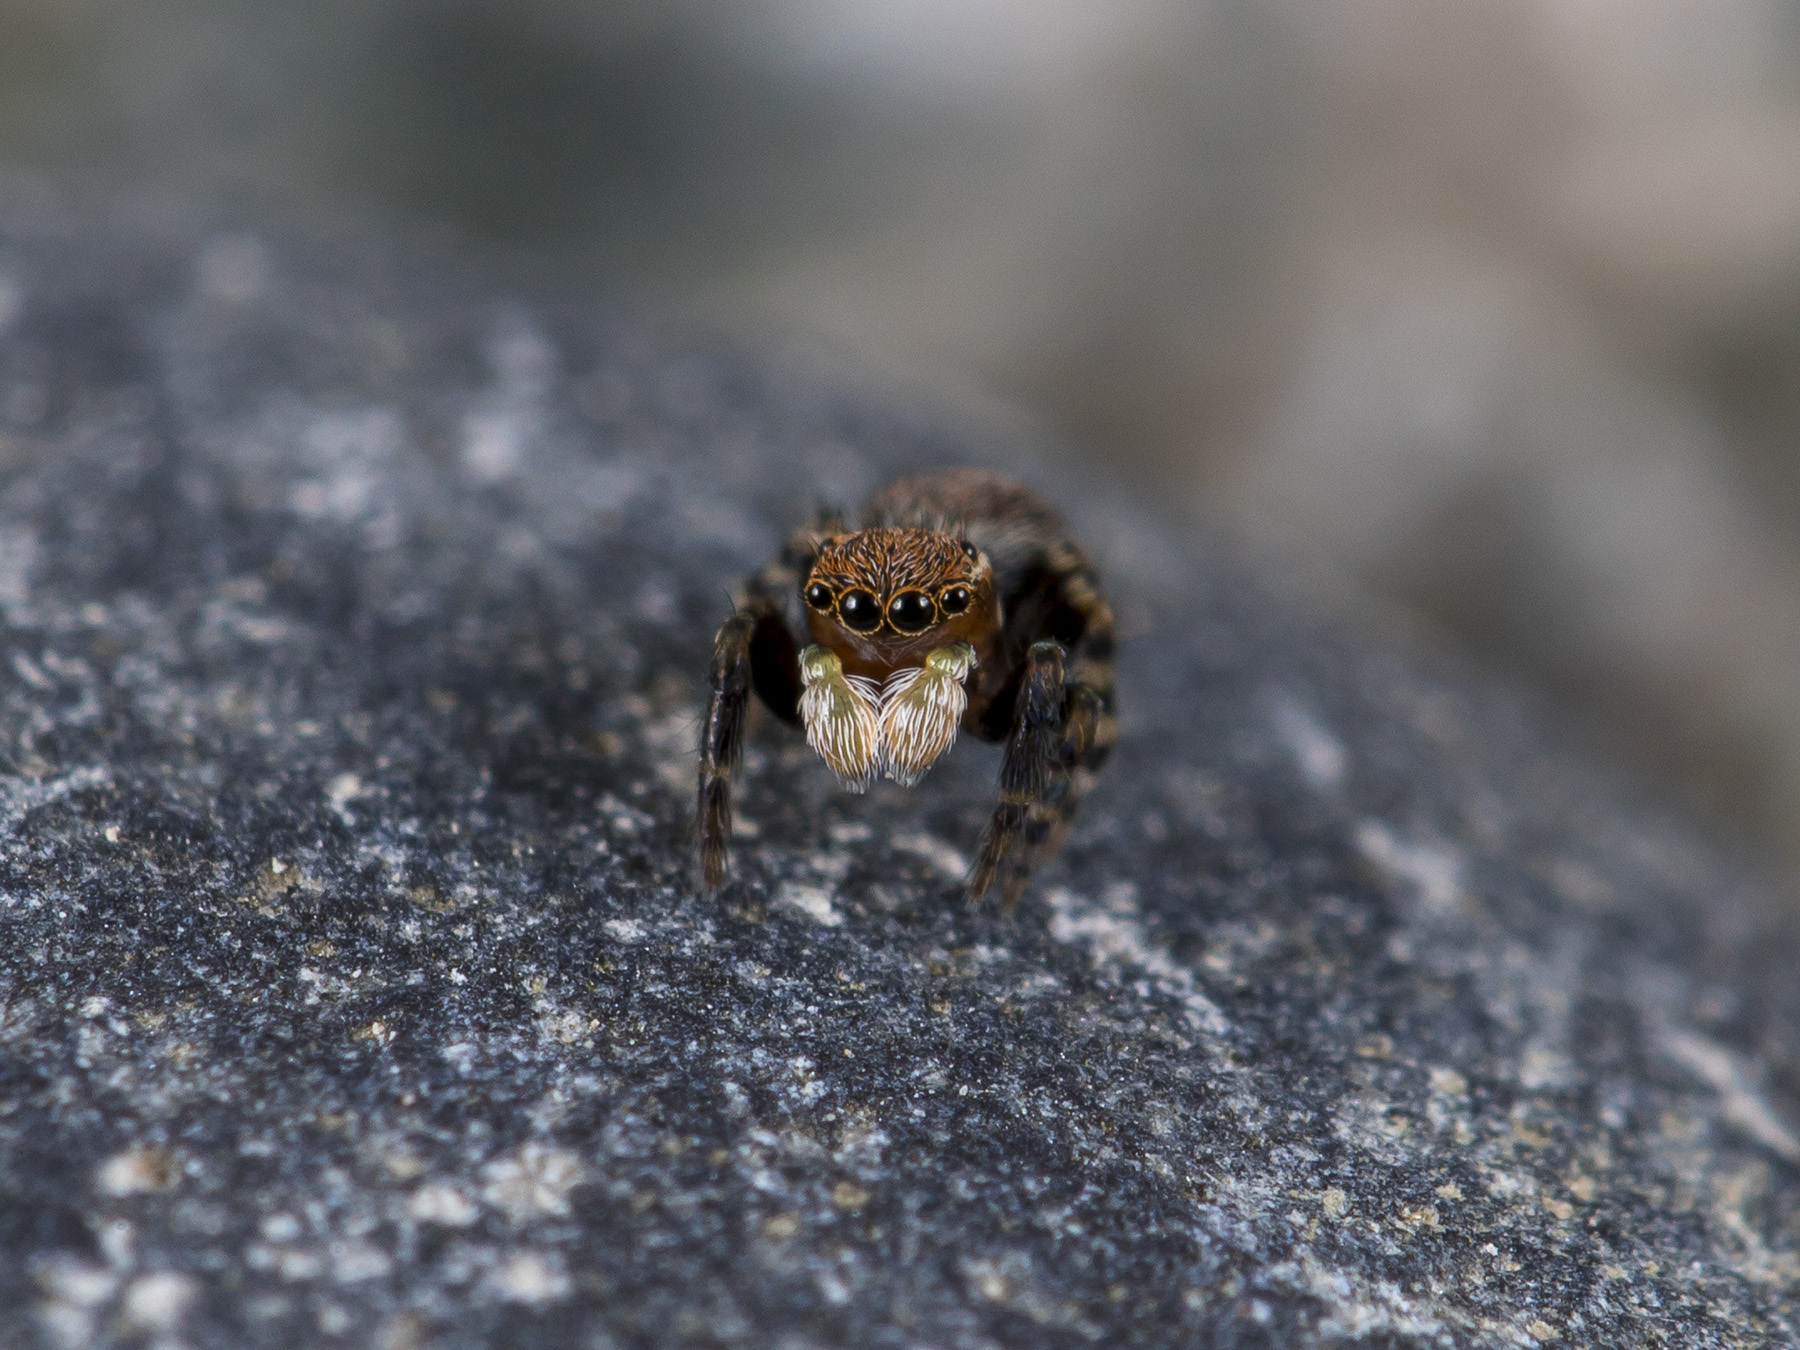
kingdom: Animalia
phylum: Arthropoda
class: Arachnida
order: Araneae
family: Salticidae
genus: Talavera
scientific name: Talavera petrensis
